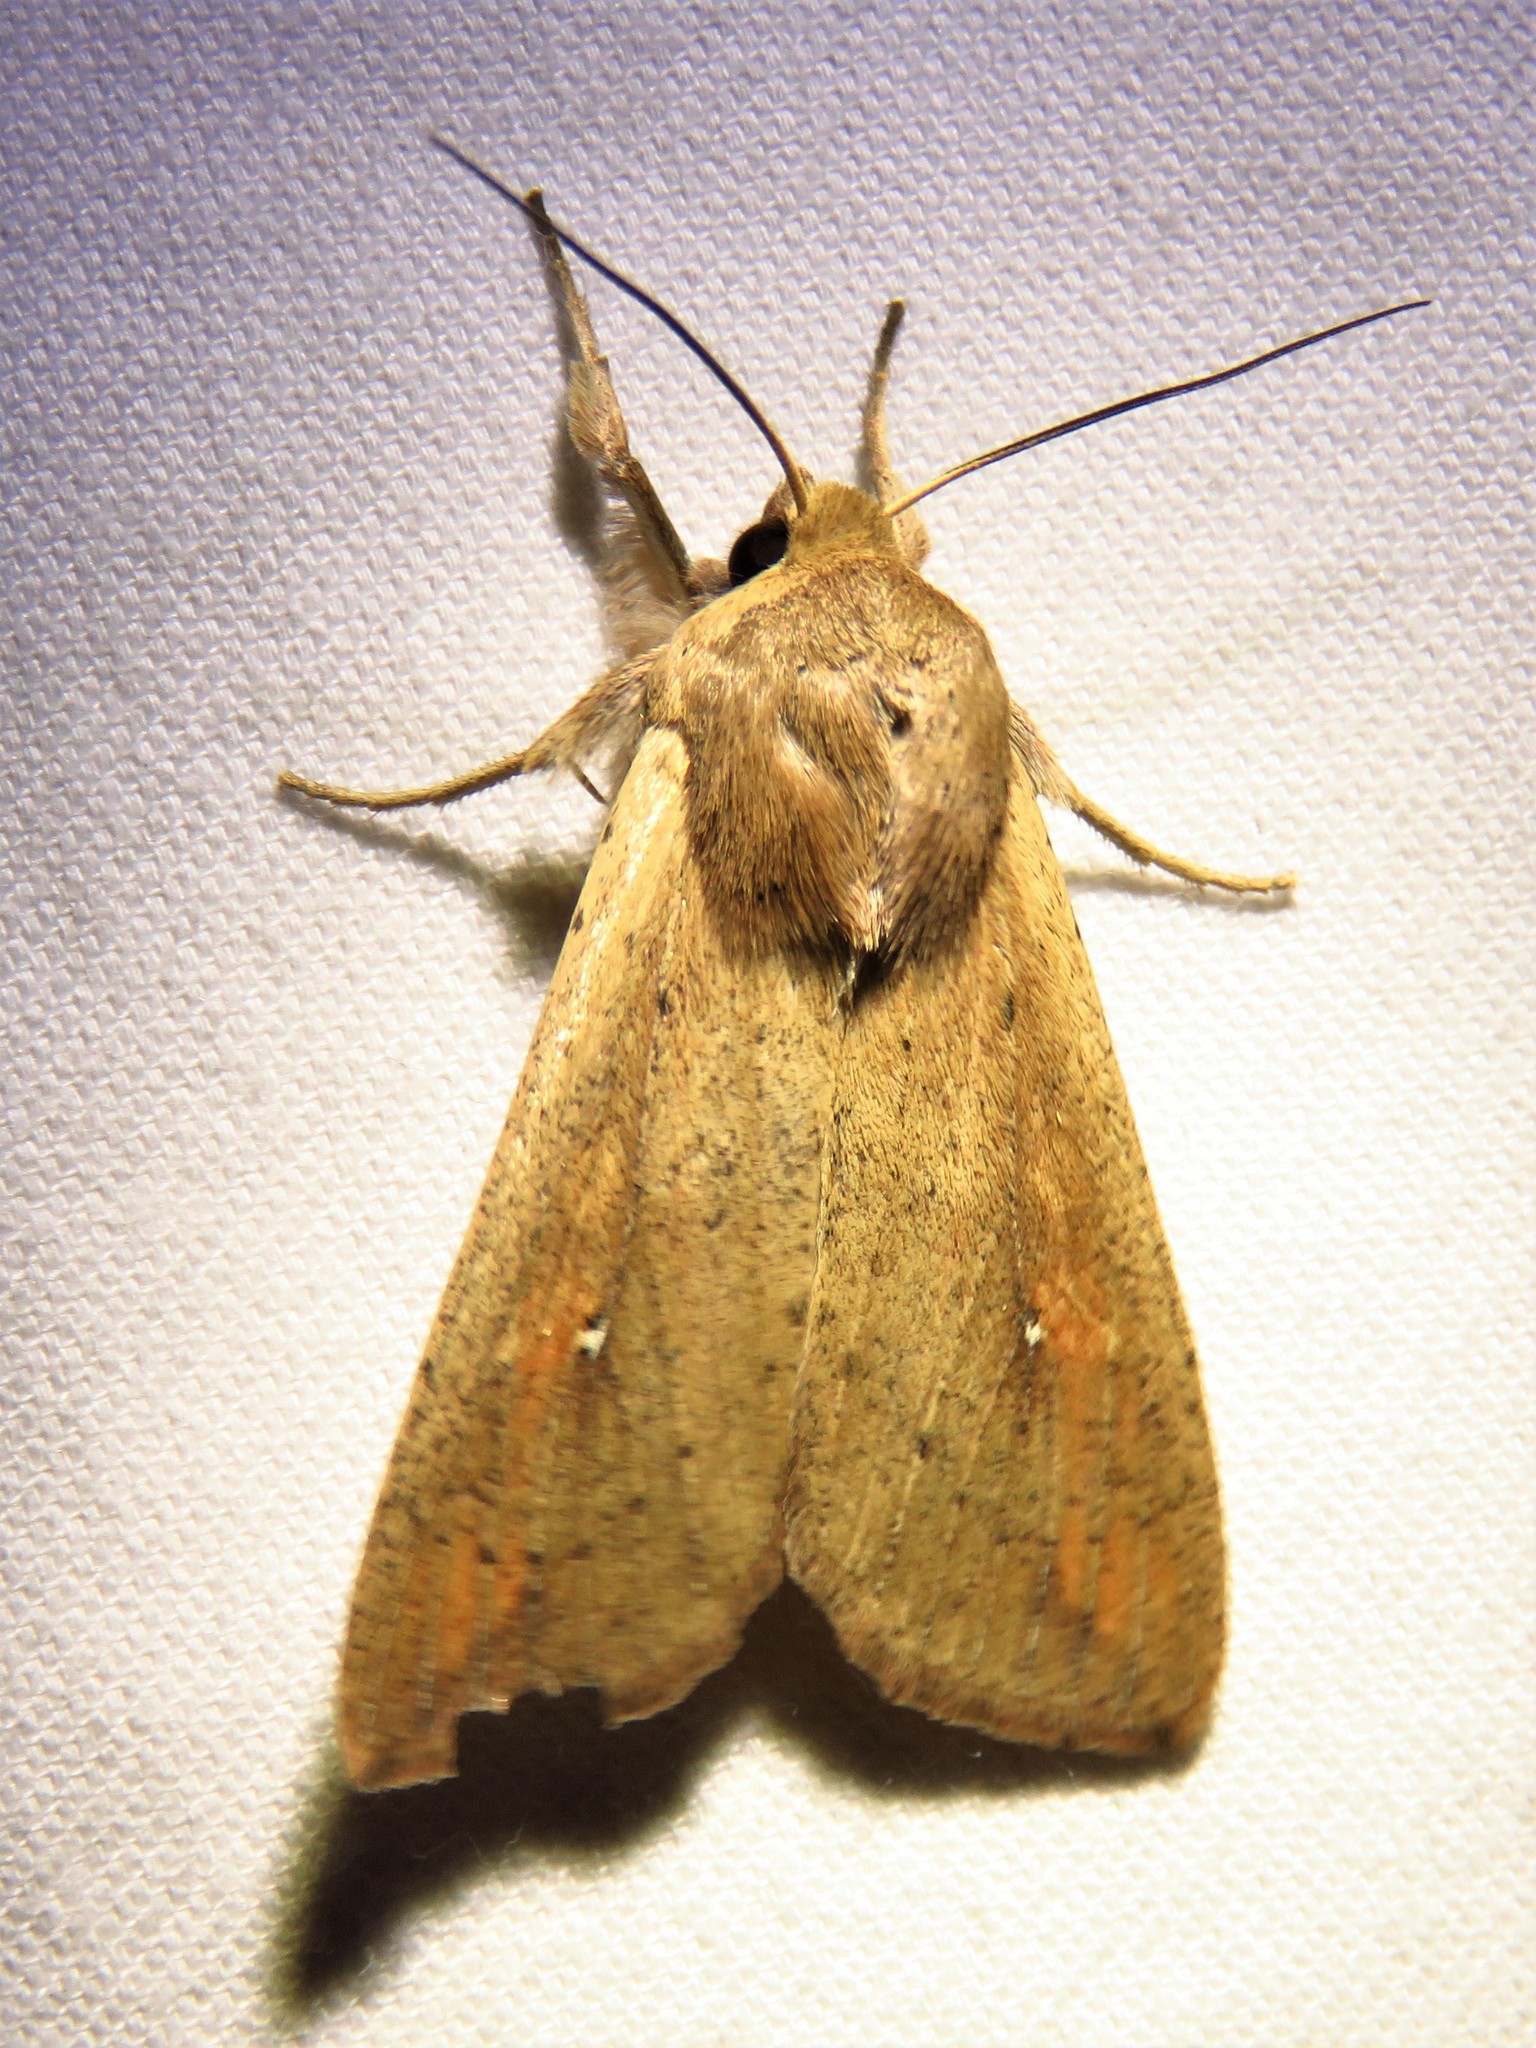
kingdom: Animalia
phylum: Arthropoda
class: Insecta
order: Lepidoptera
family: Noctuidae
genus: Mythimna
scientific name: Mythimna unipuncta
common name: White-speck
